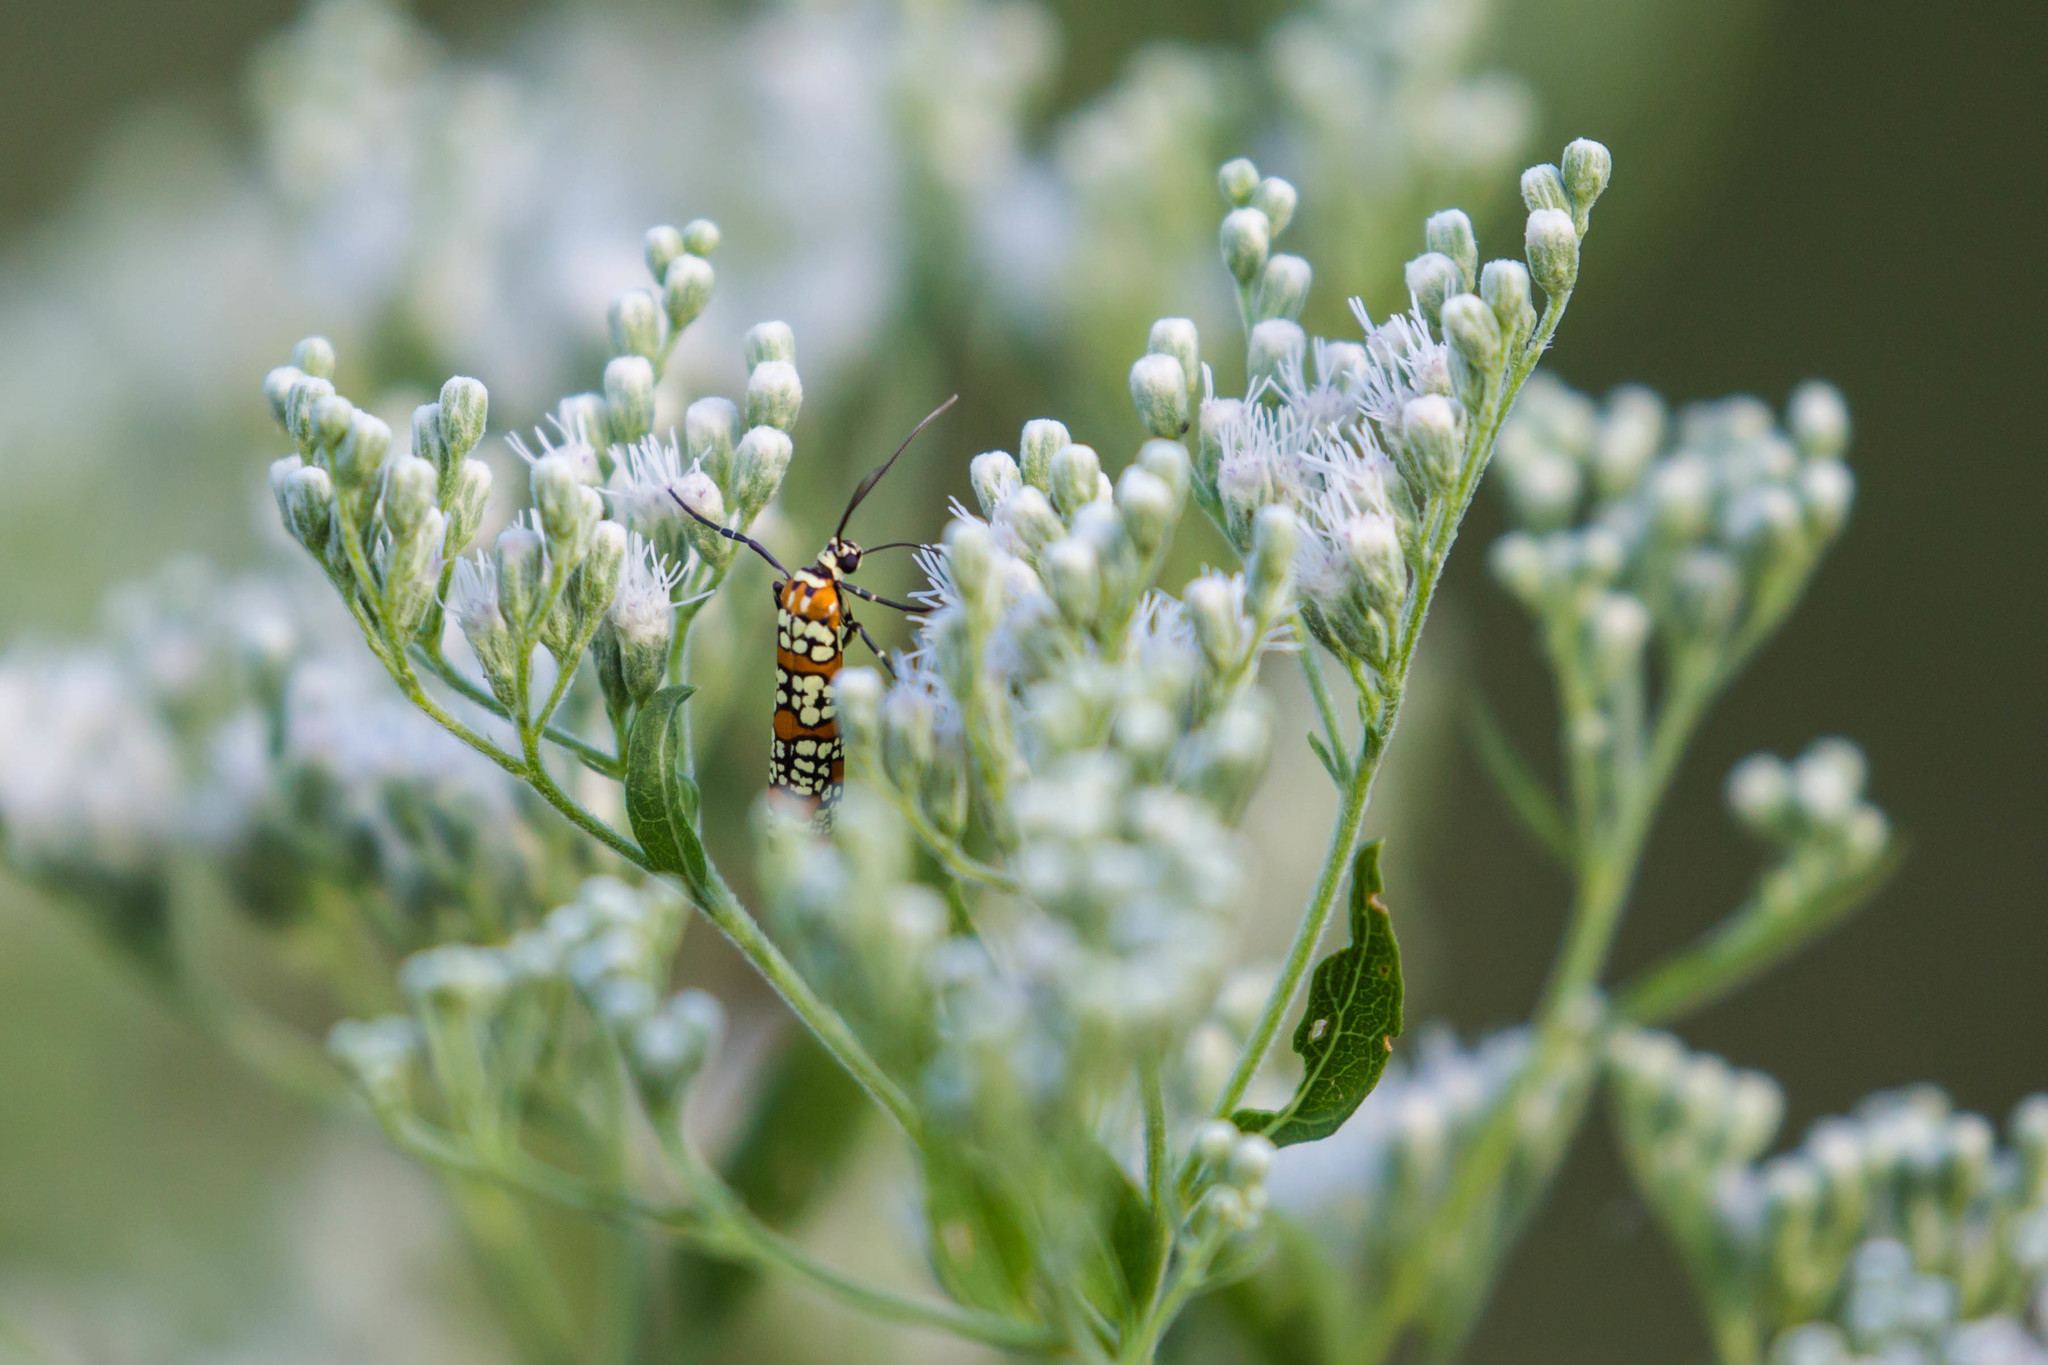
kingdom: Animalia
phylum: Arthropoda
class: Insecta
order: Lepidoptera
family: Attevidae
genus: Atteva
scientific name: Atteva punctella
